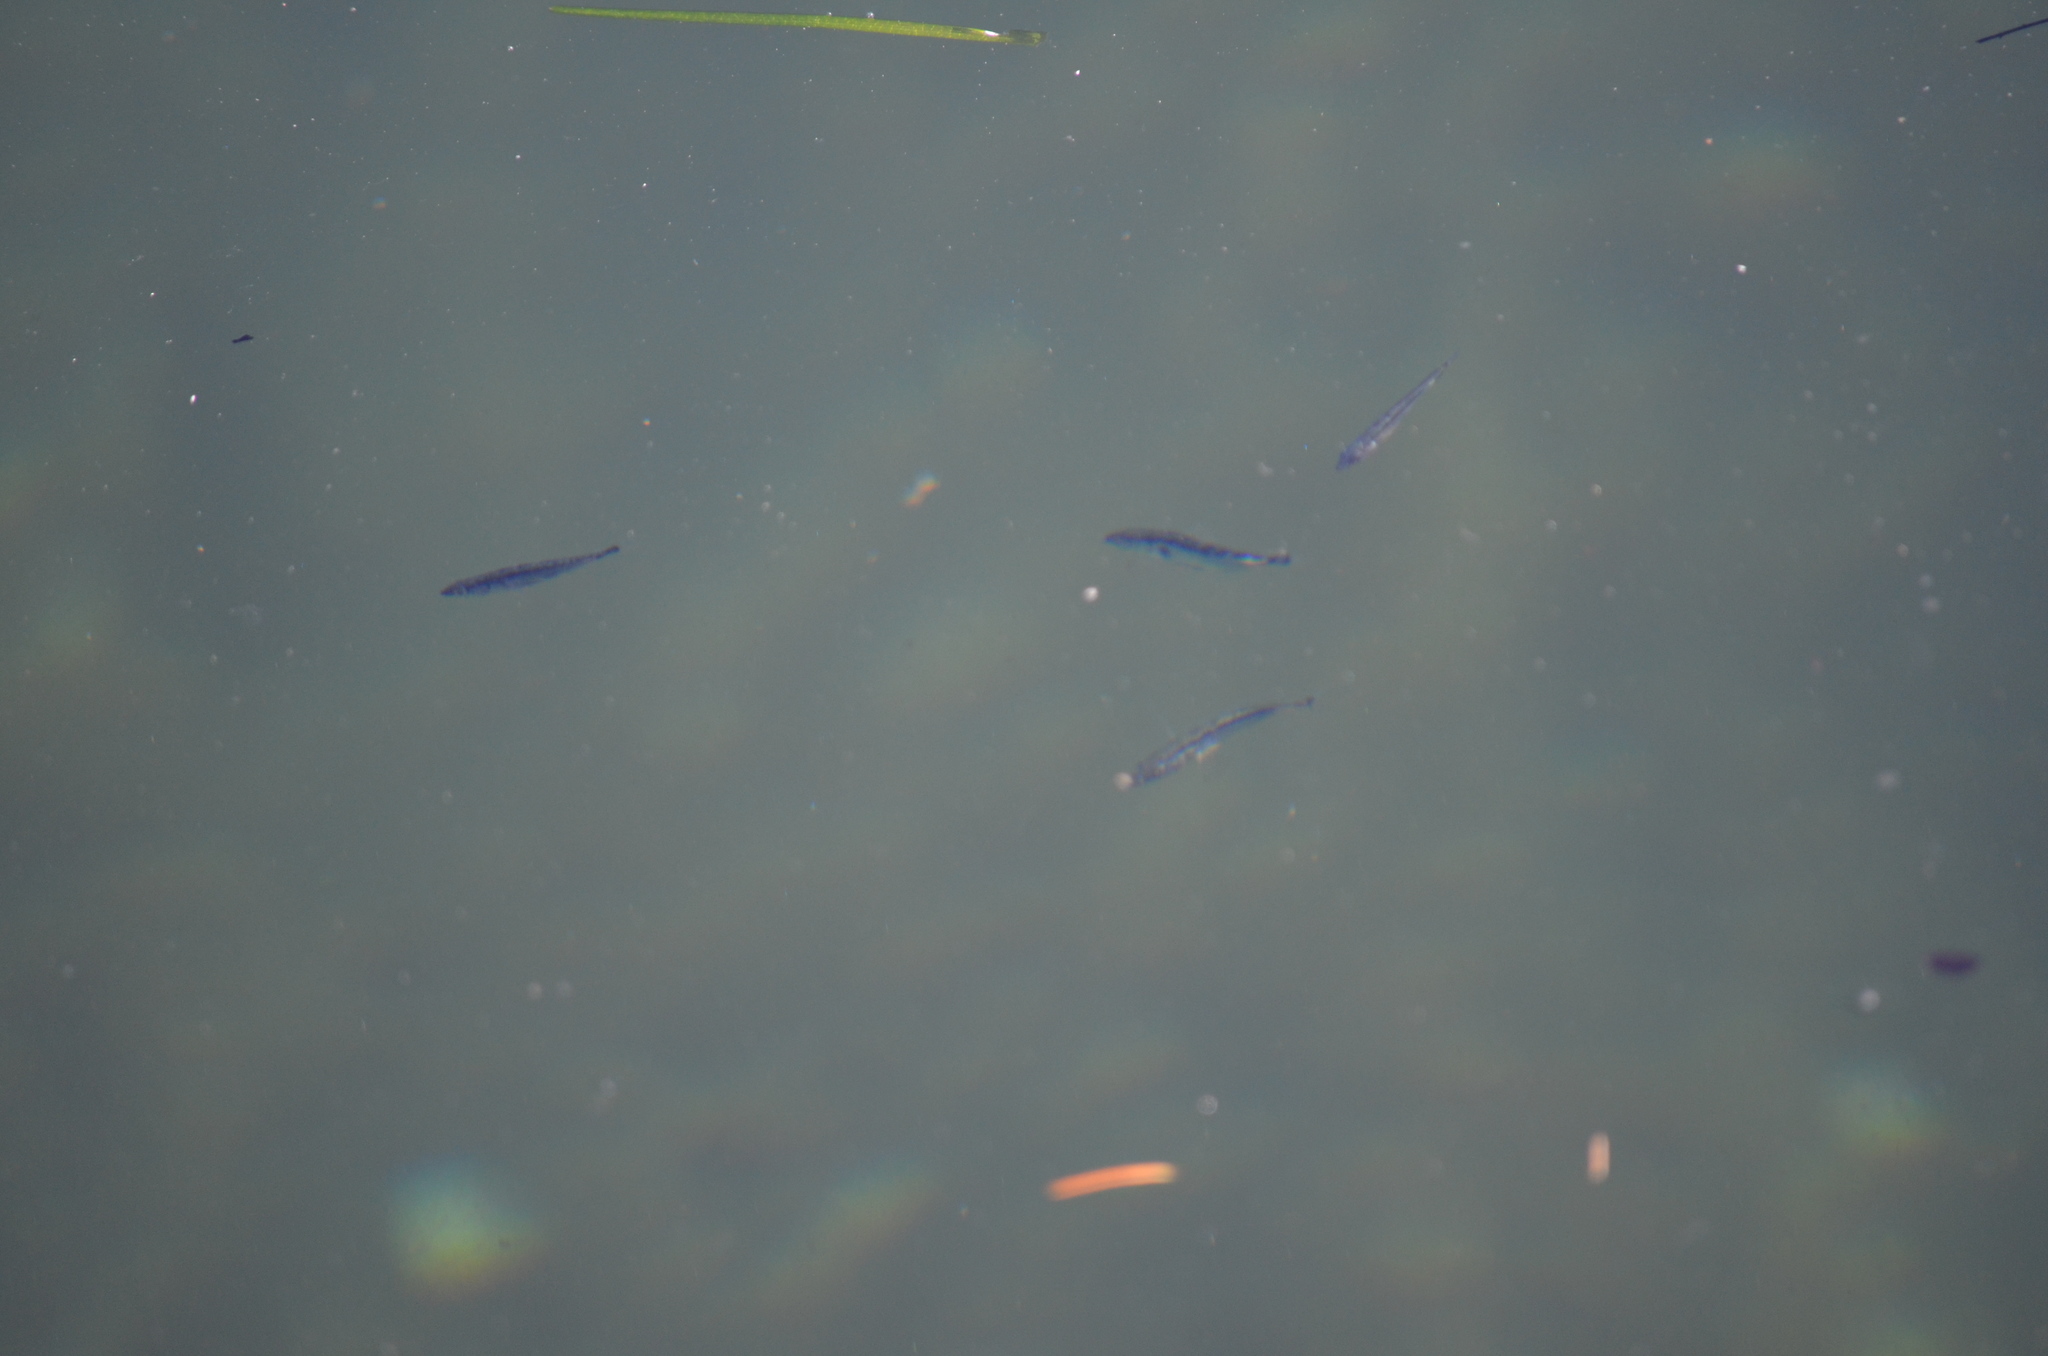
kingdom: Animalia
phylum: Chordata
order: Gasterosteiformes
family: Gasterosteidae
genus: Gasterosteus
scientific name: Gasterosteus aculeatus
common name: Three-spined stickleback
